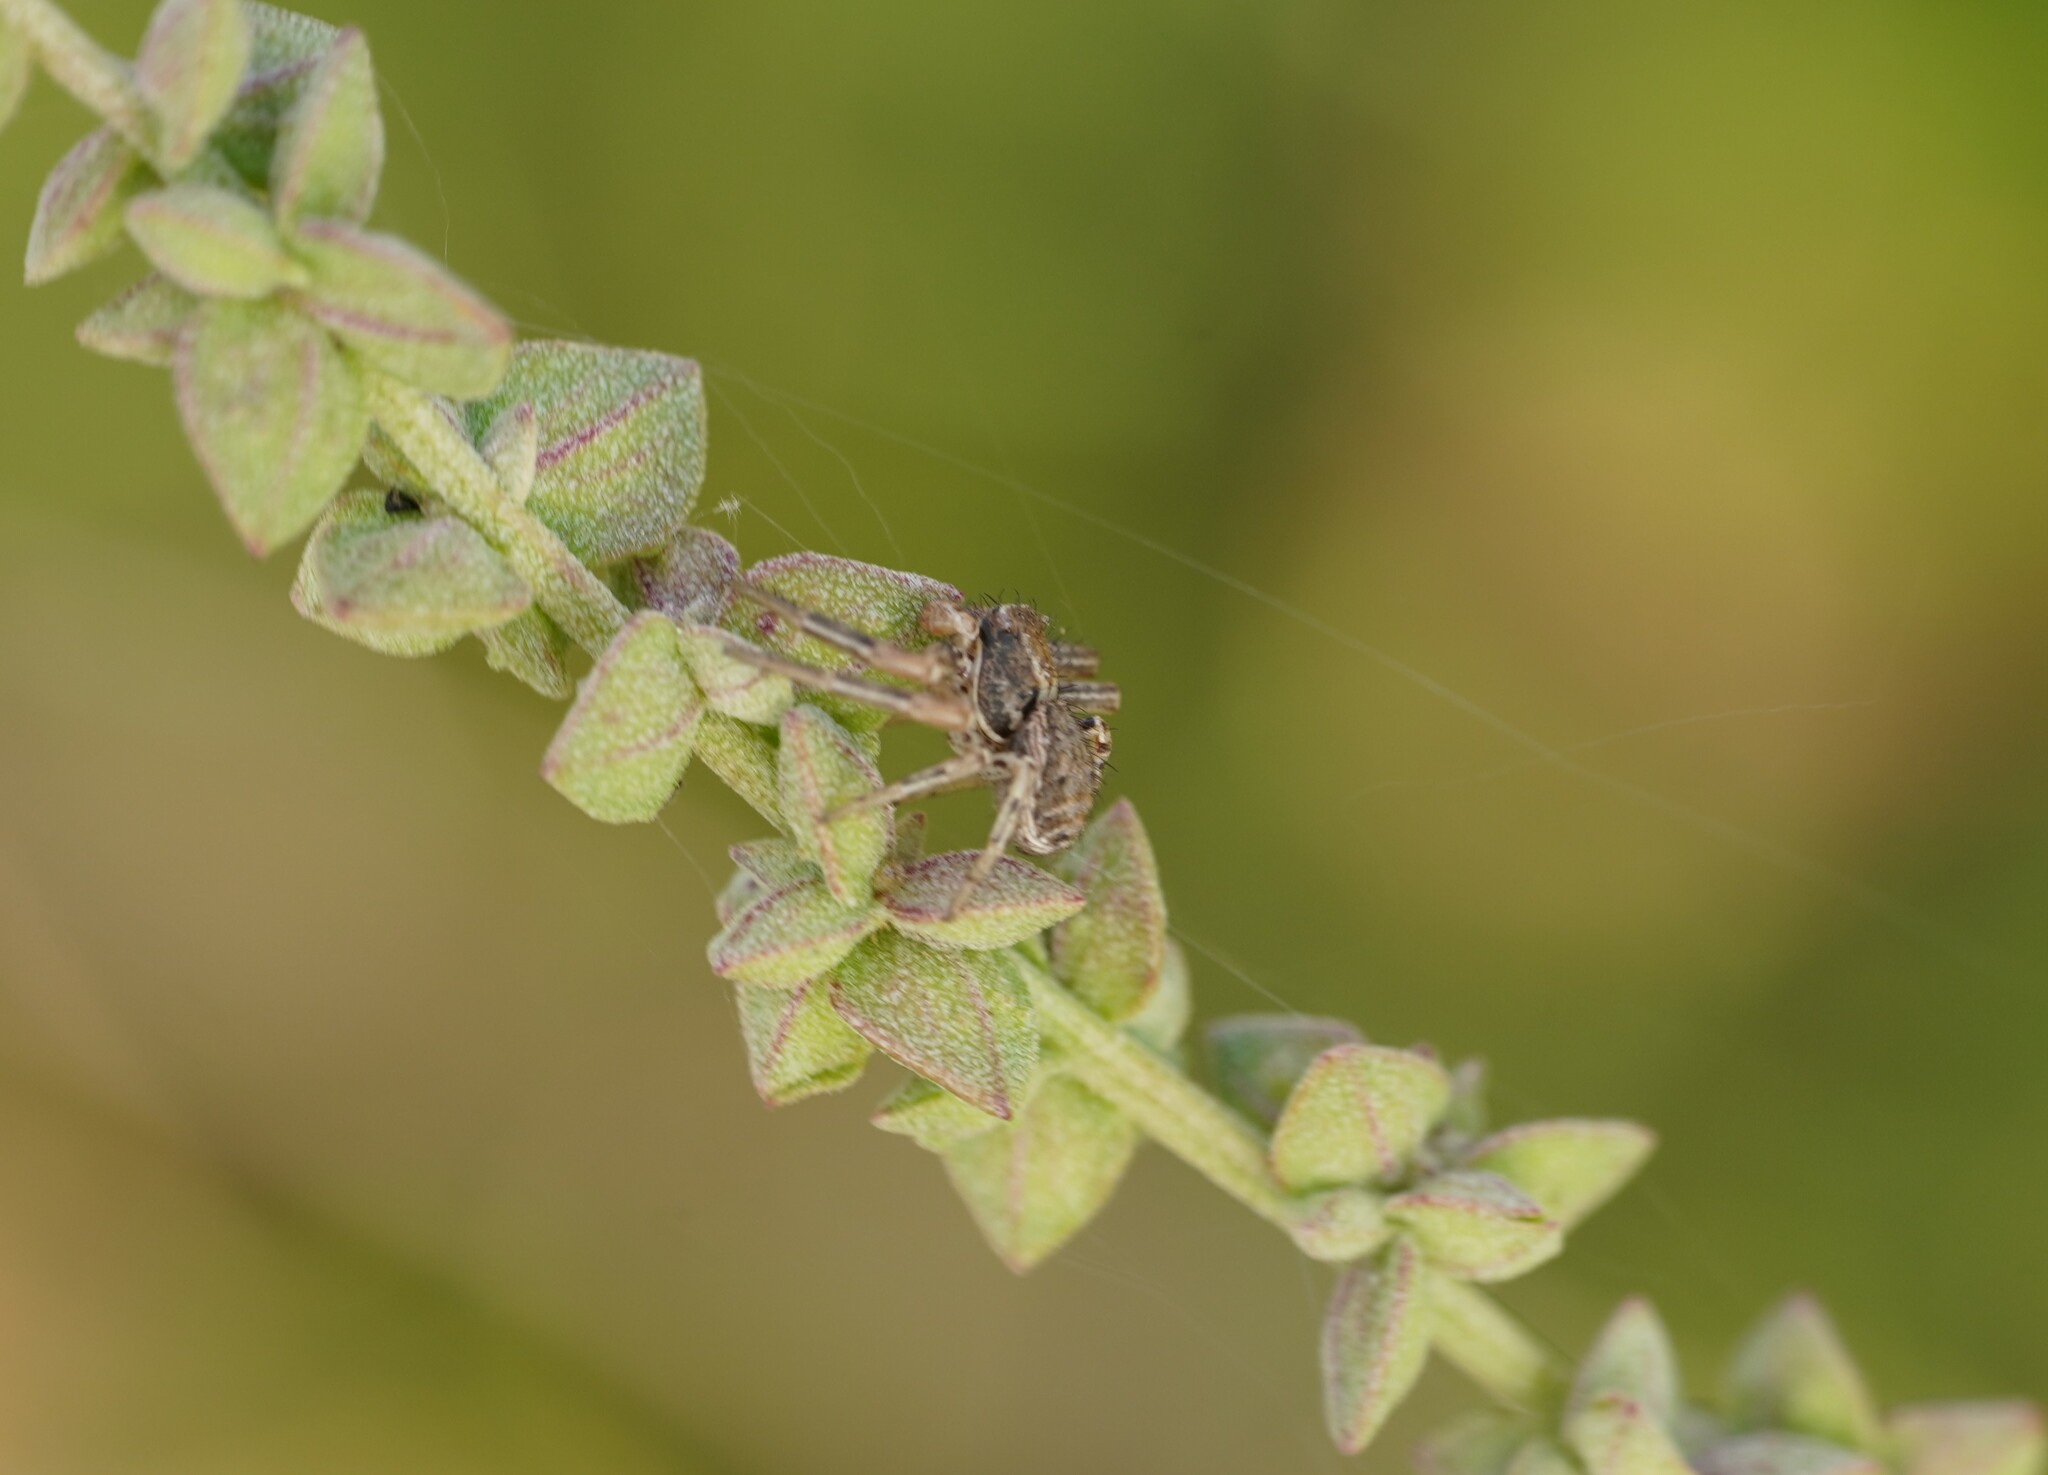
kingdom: Animalia
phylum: Arthropoda
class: Arachnida
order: Araneae
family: Thomisidae
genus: Xysticus
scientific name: Xysticus
